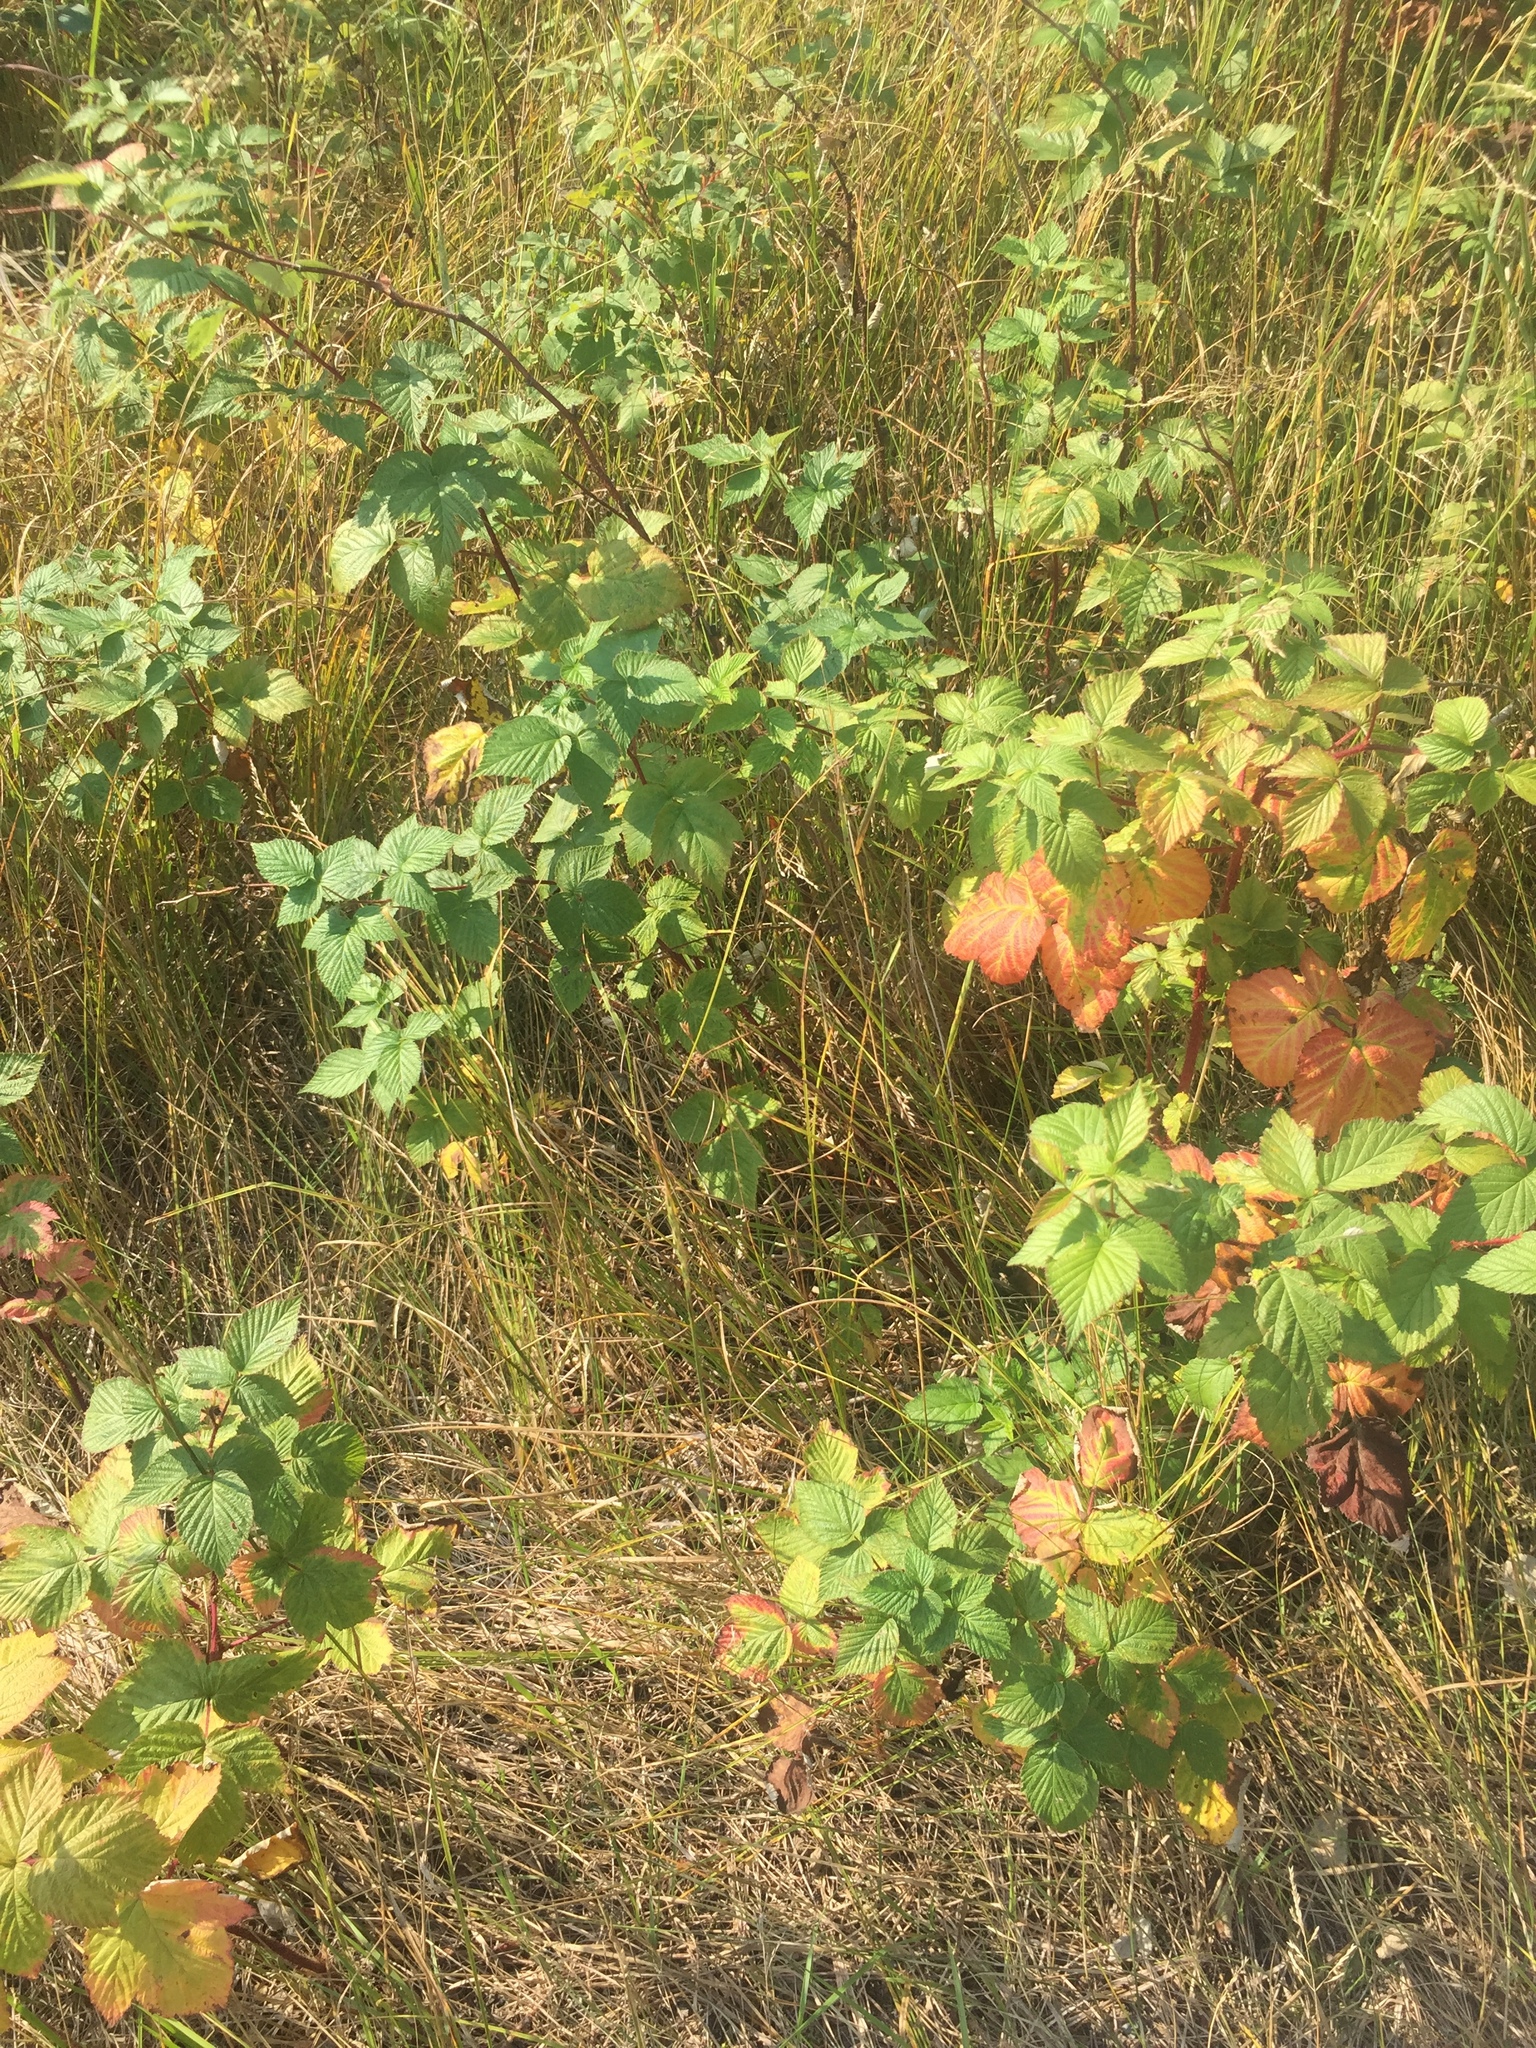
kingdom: Plantae
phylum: Tracheophyta
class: Magnoliopsida
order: Rosales
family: Rosaceae
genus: Rubus
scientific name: Rubus idaeus
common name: Raspberry
